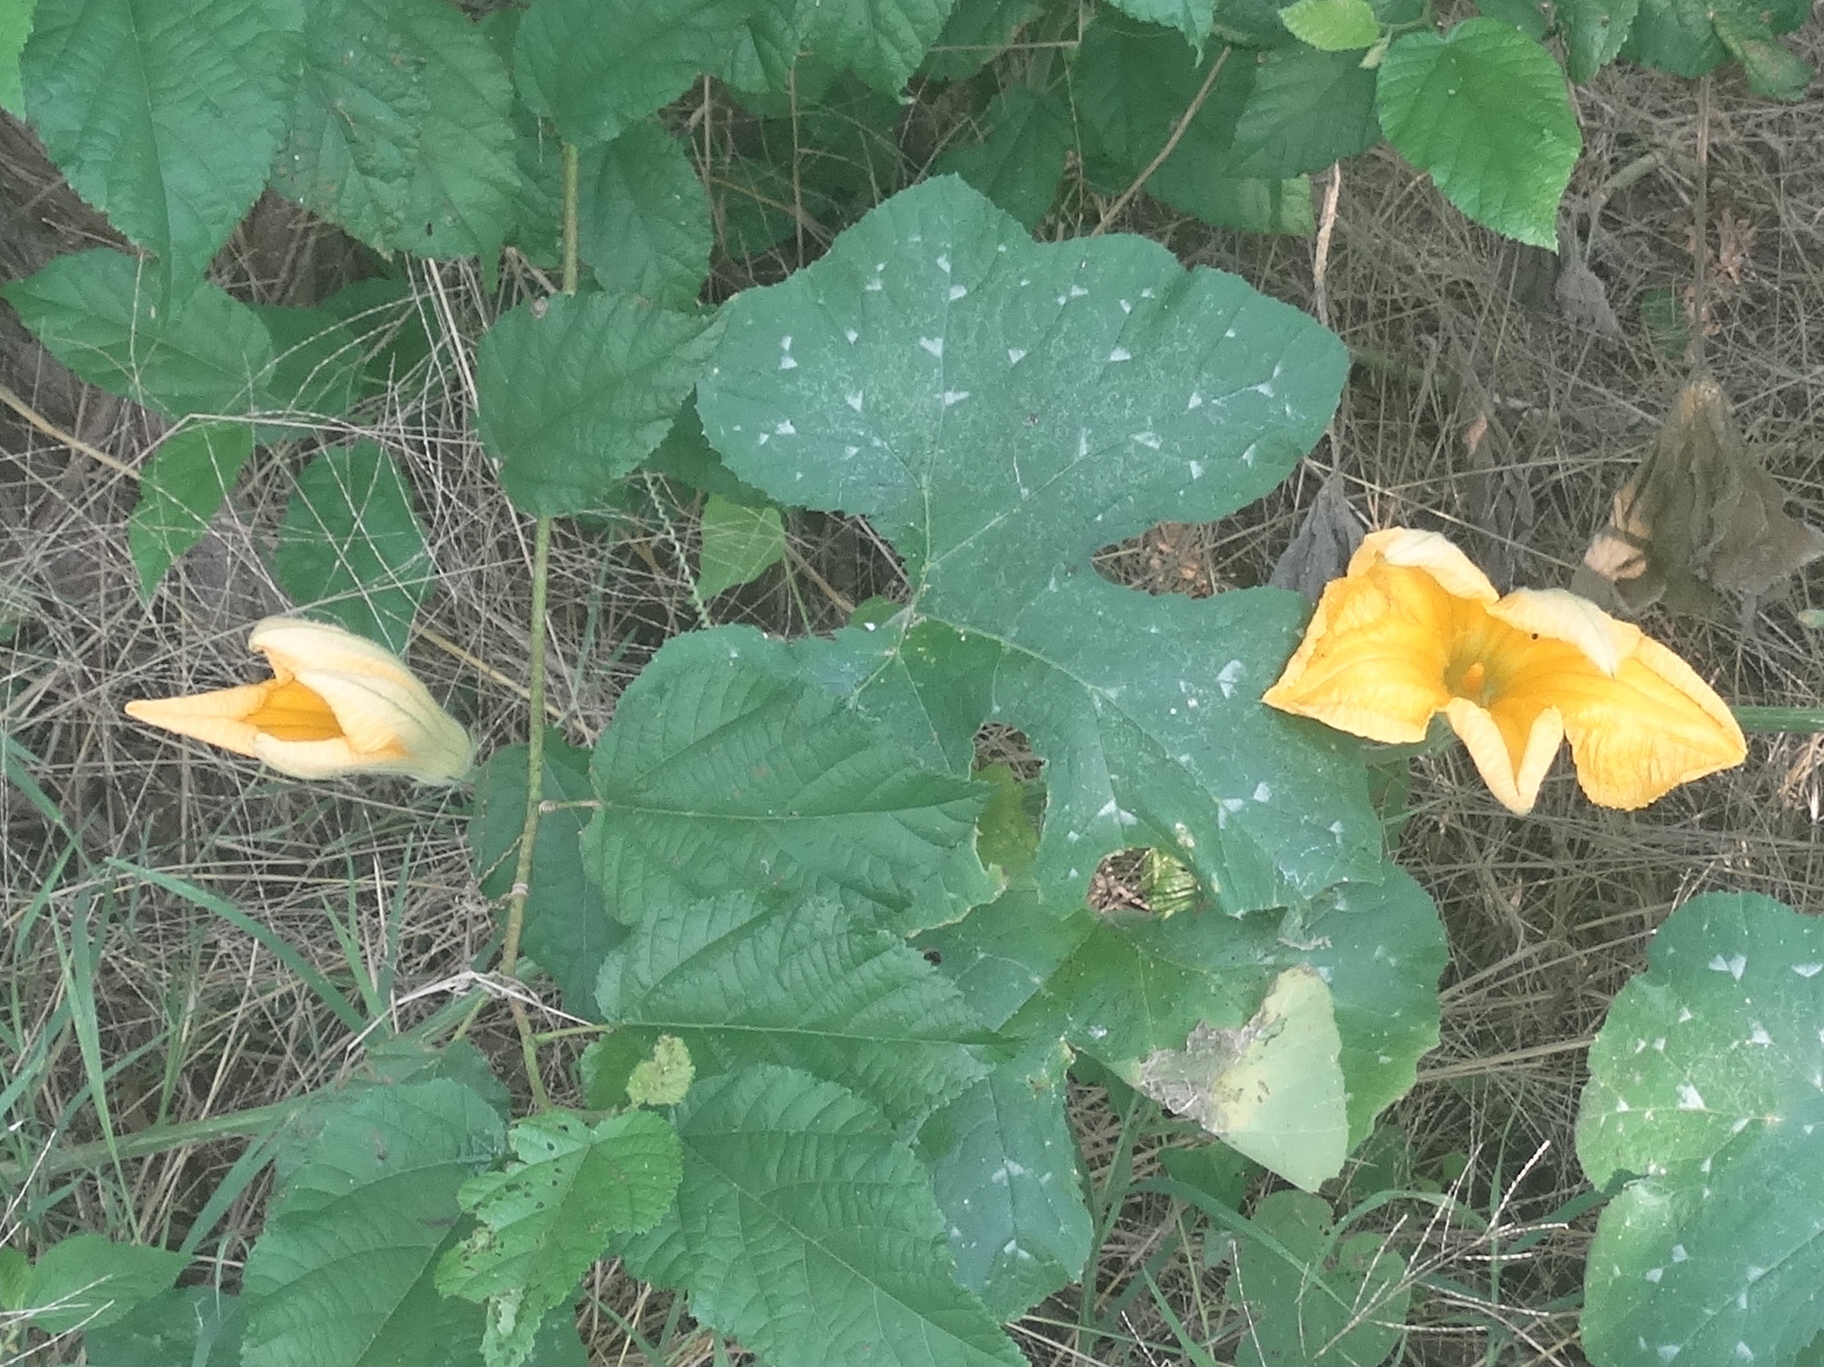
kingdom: Plantae
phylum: Tracheophyta
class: Magnoliopsida
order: Cucurbitales
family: Cucurbitaceae
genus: Cucurbita
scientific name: Cucurbita ficifolia
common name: Figleaf gourd
